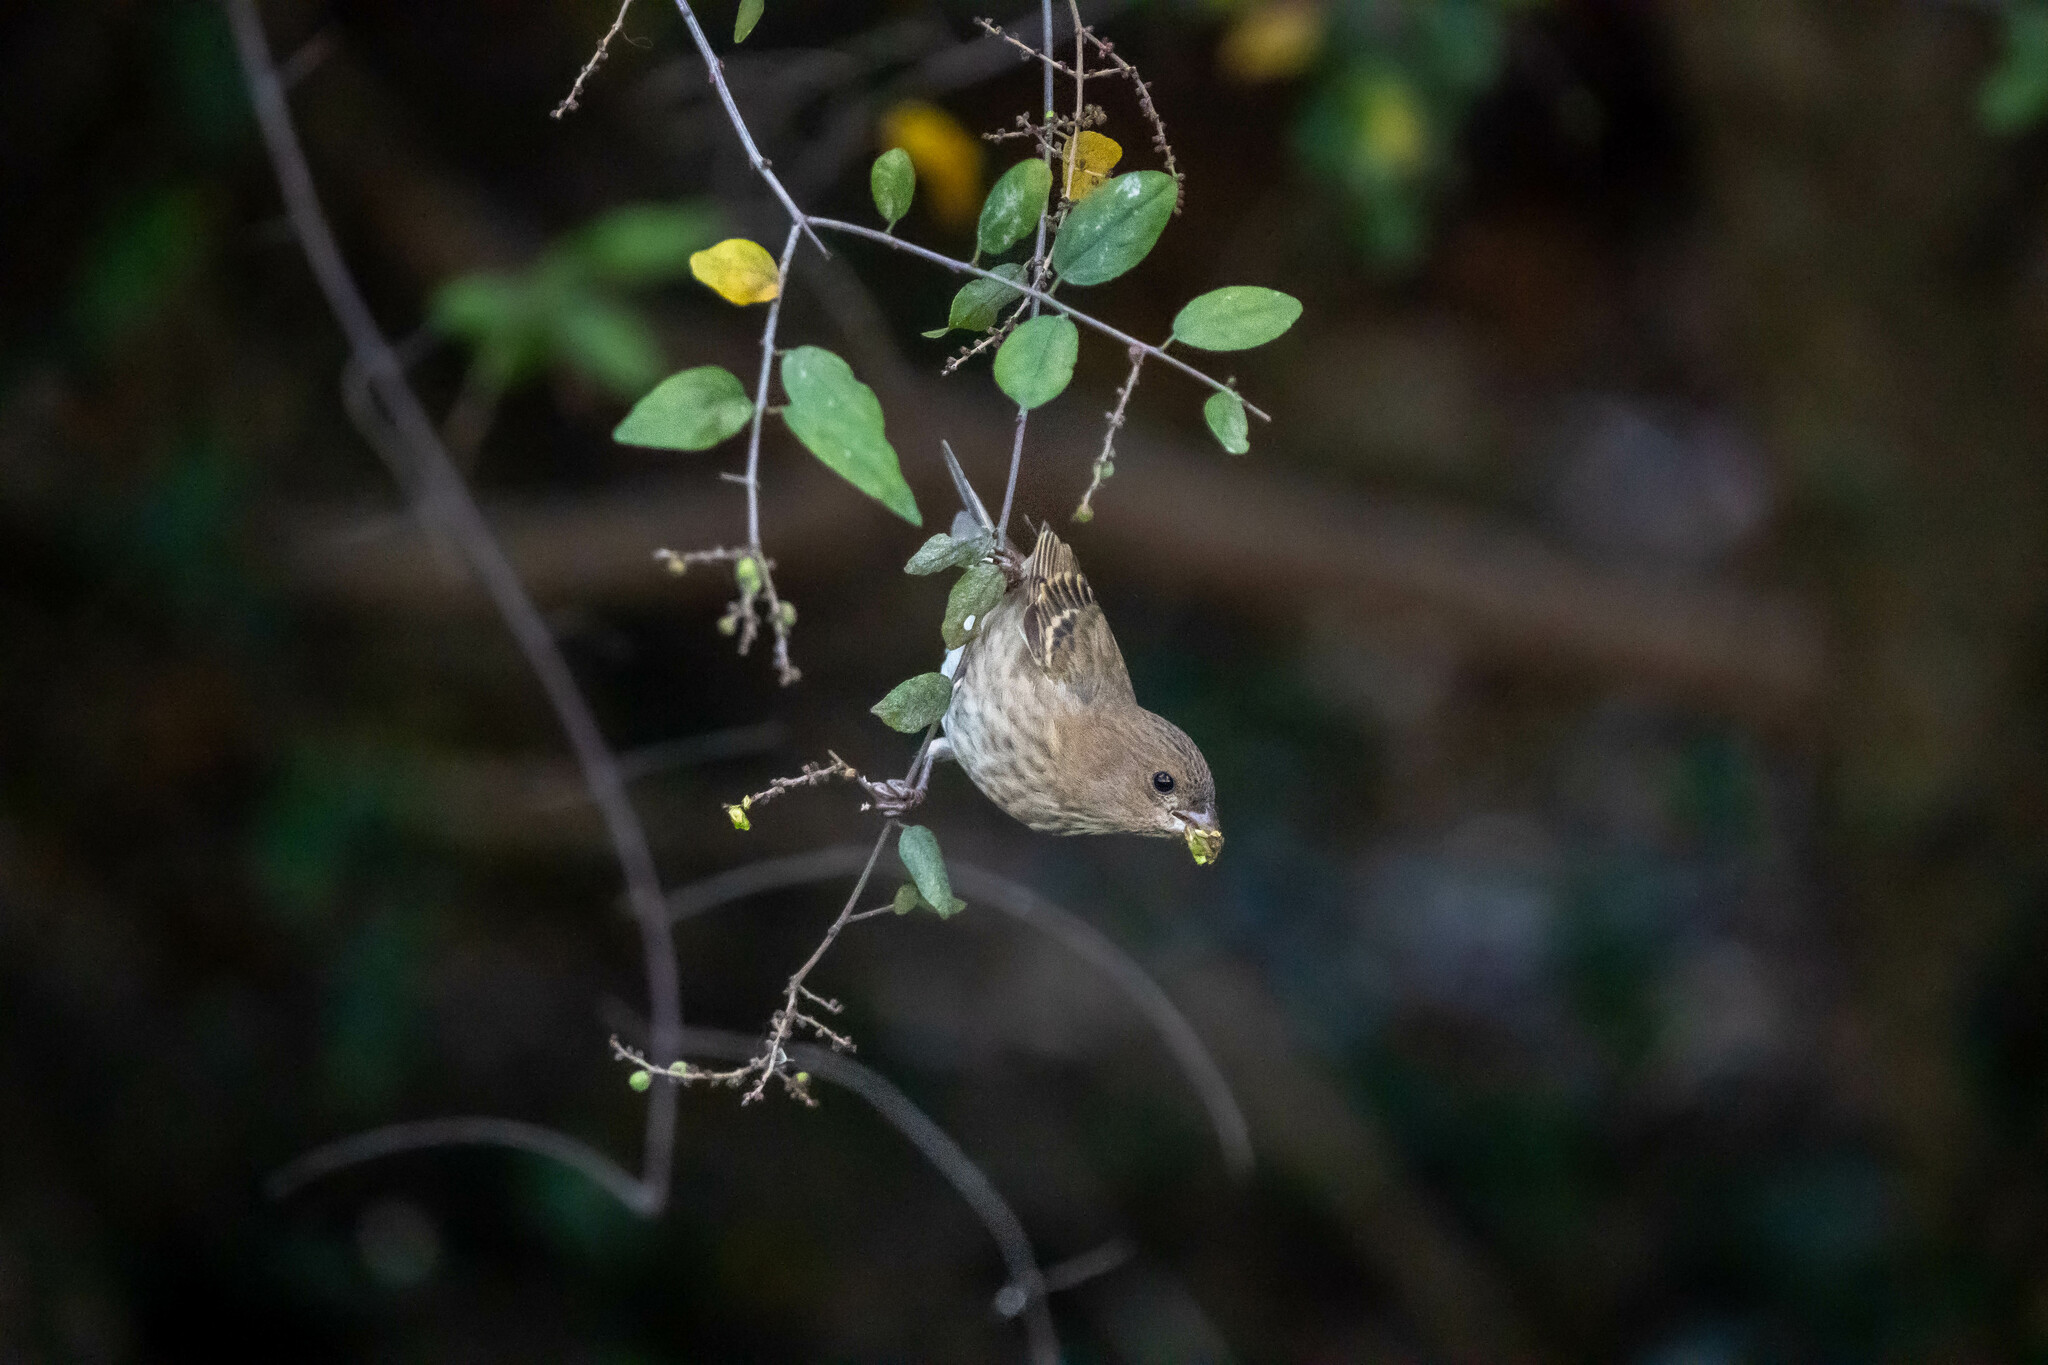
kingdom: Animalia
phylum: Chordata
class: Aves
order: Passeriformes
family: Fringillidae
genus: Carpodacus
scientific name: Carpodacus erythrinus
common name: Common rosefinch
